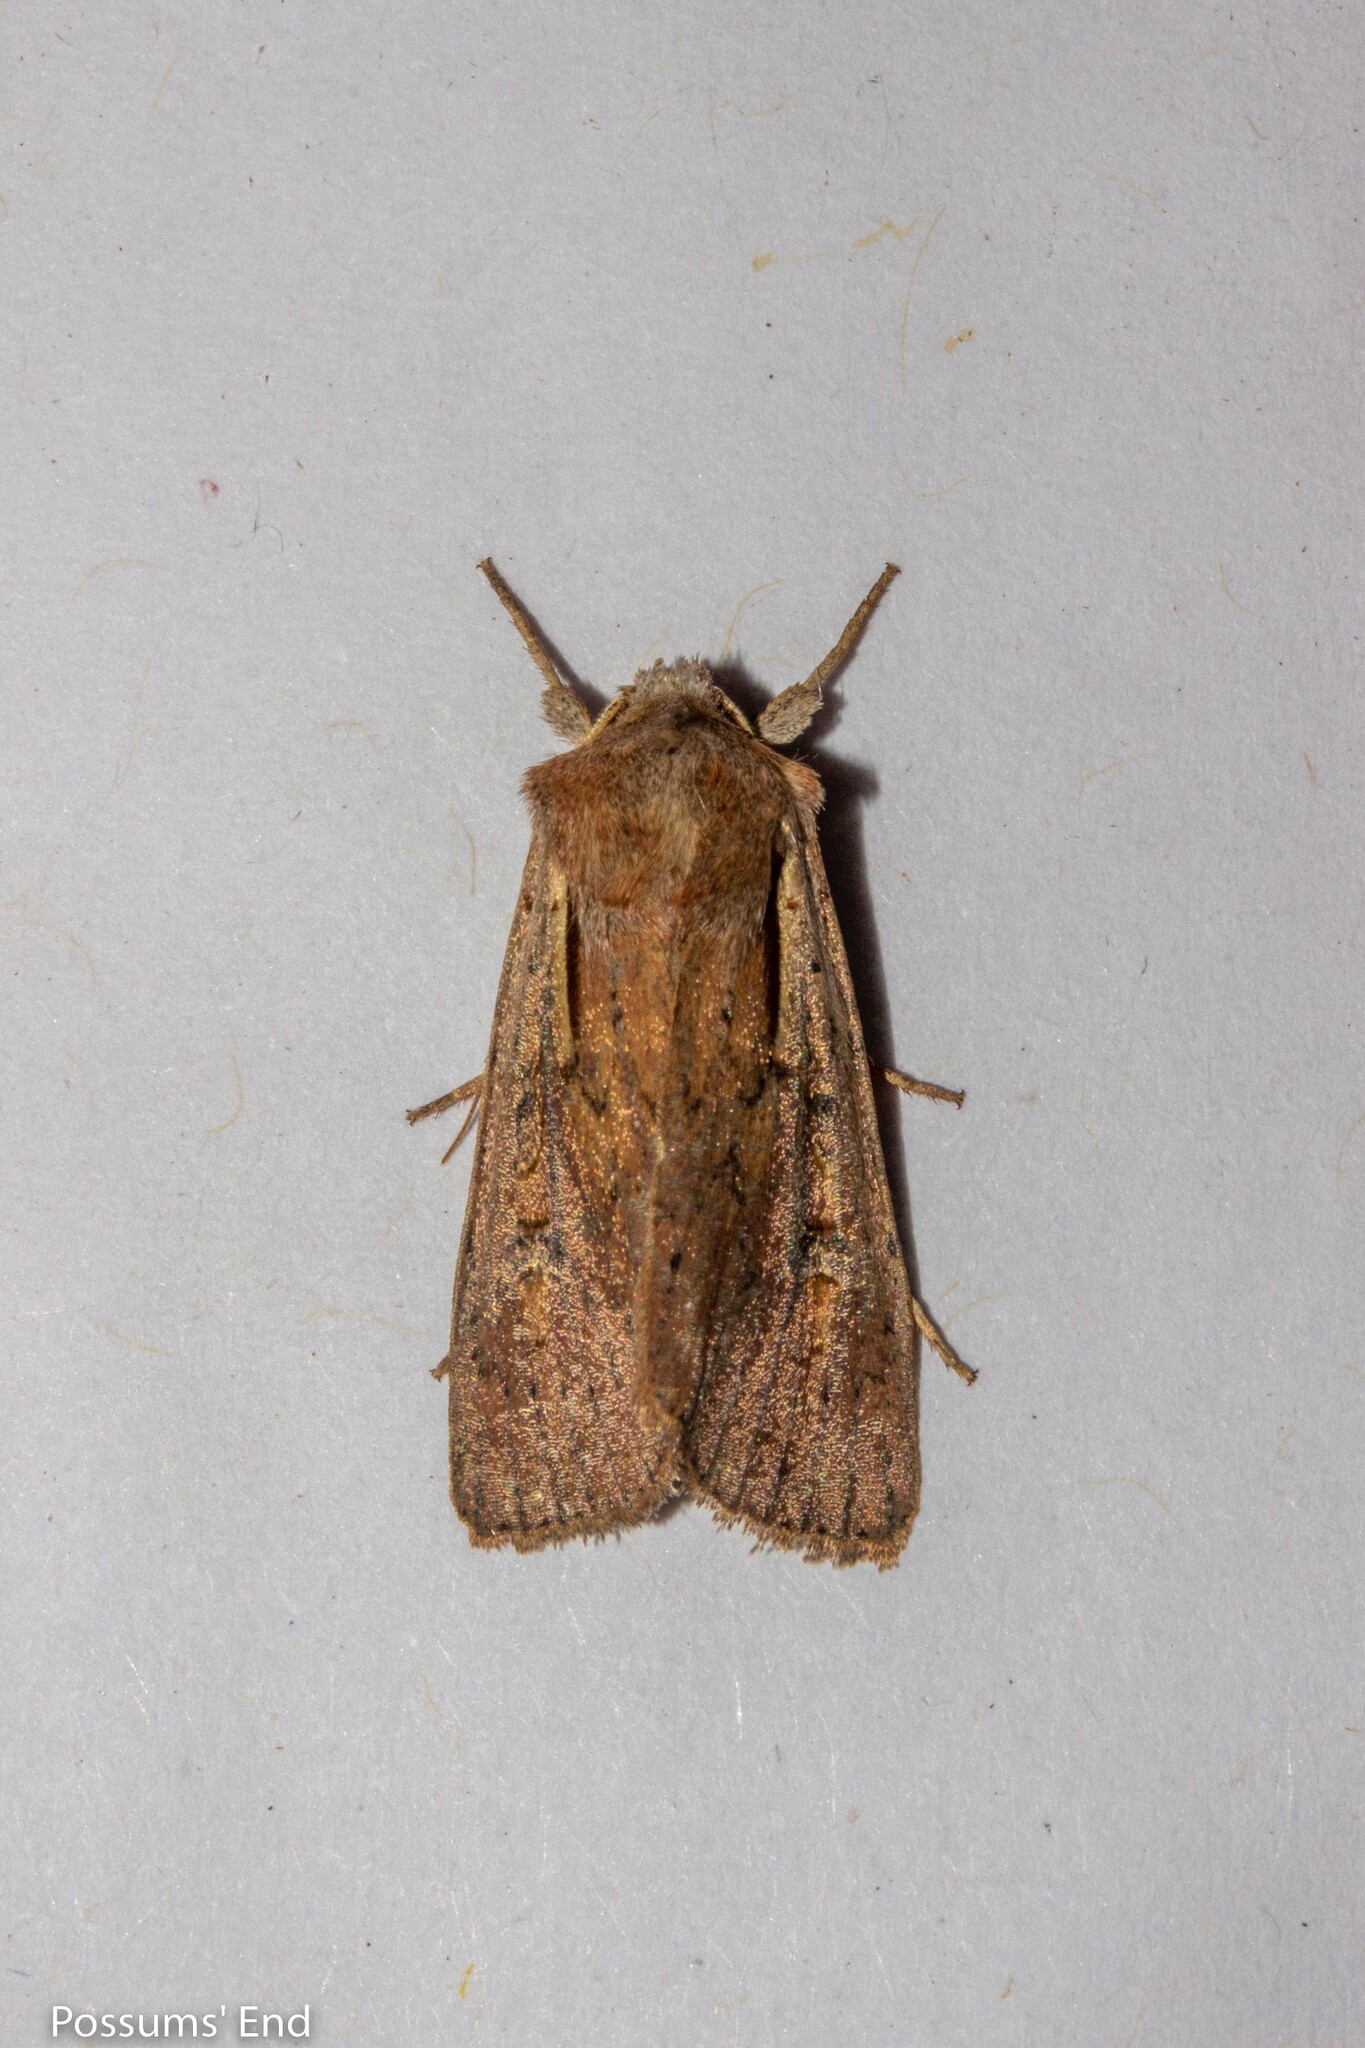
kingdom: Animalia
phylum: Arthropoda
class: Insecta
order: Lepidoptera
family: Noctuidae
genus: Ichneutica
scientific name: Ichneutica atristriga
